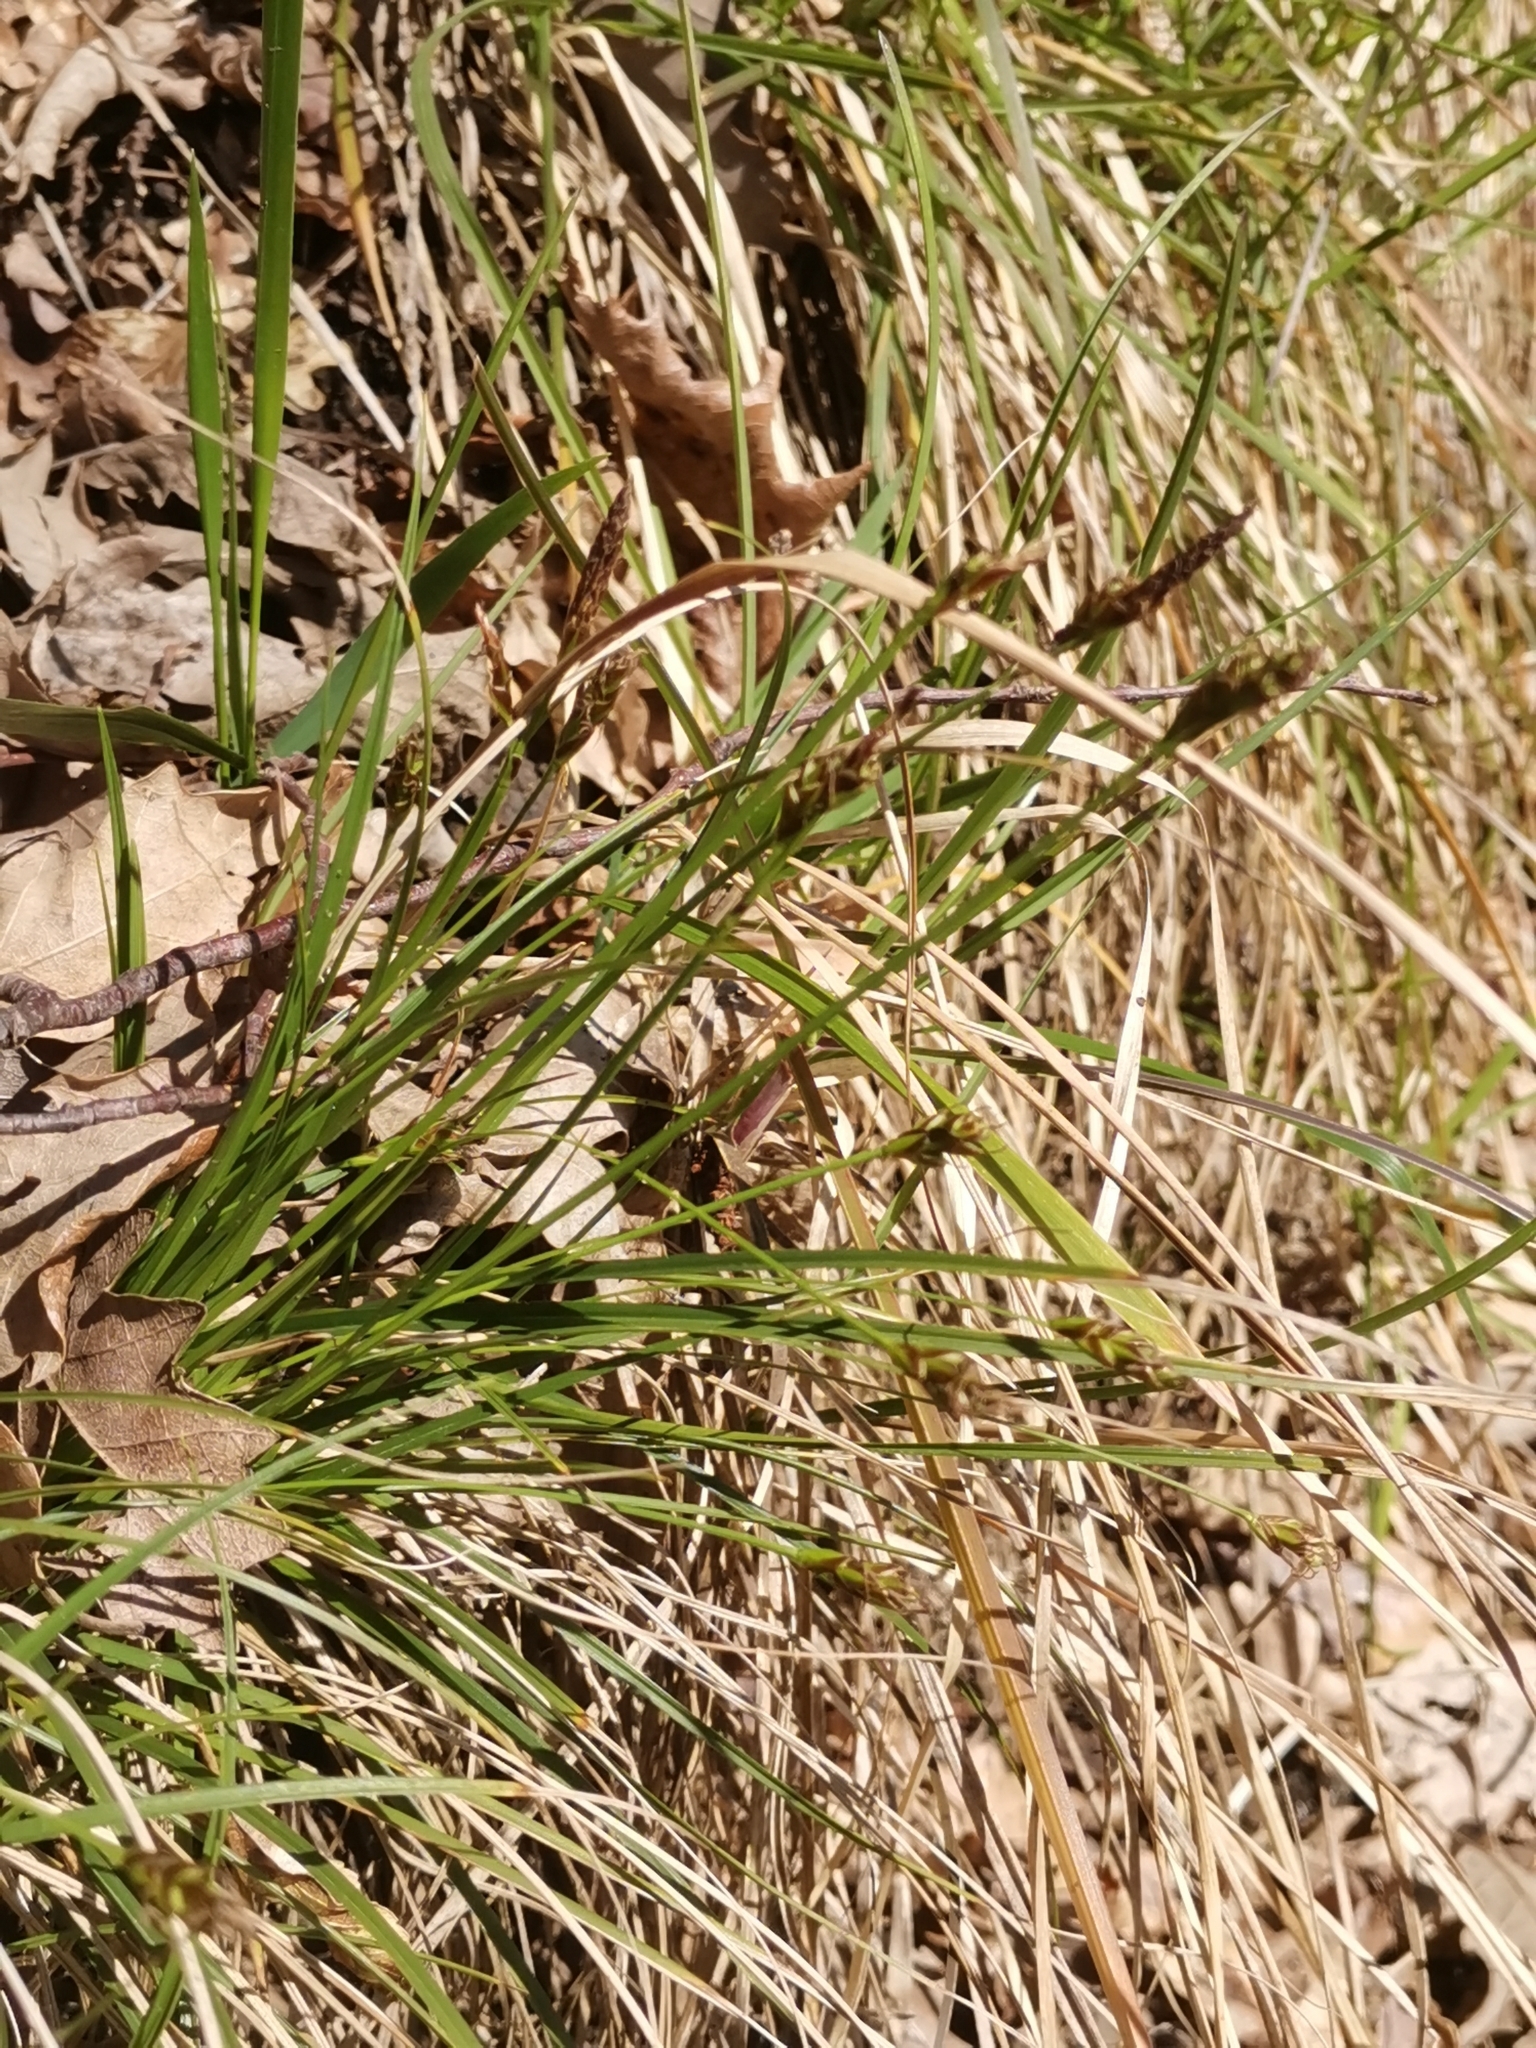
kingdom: Plantae
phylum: Tracheophyta
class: Liliopsida
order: Poales
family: Cyperaceae
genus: Carex
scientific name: Carex halleriana
